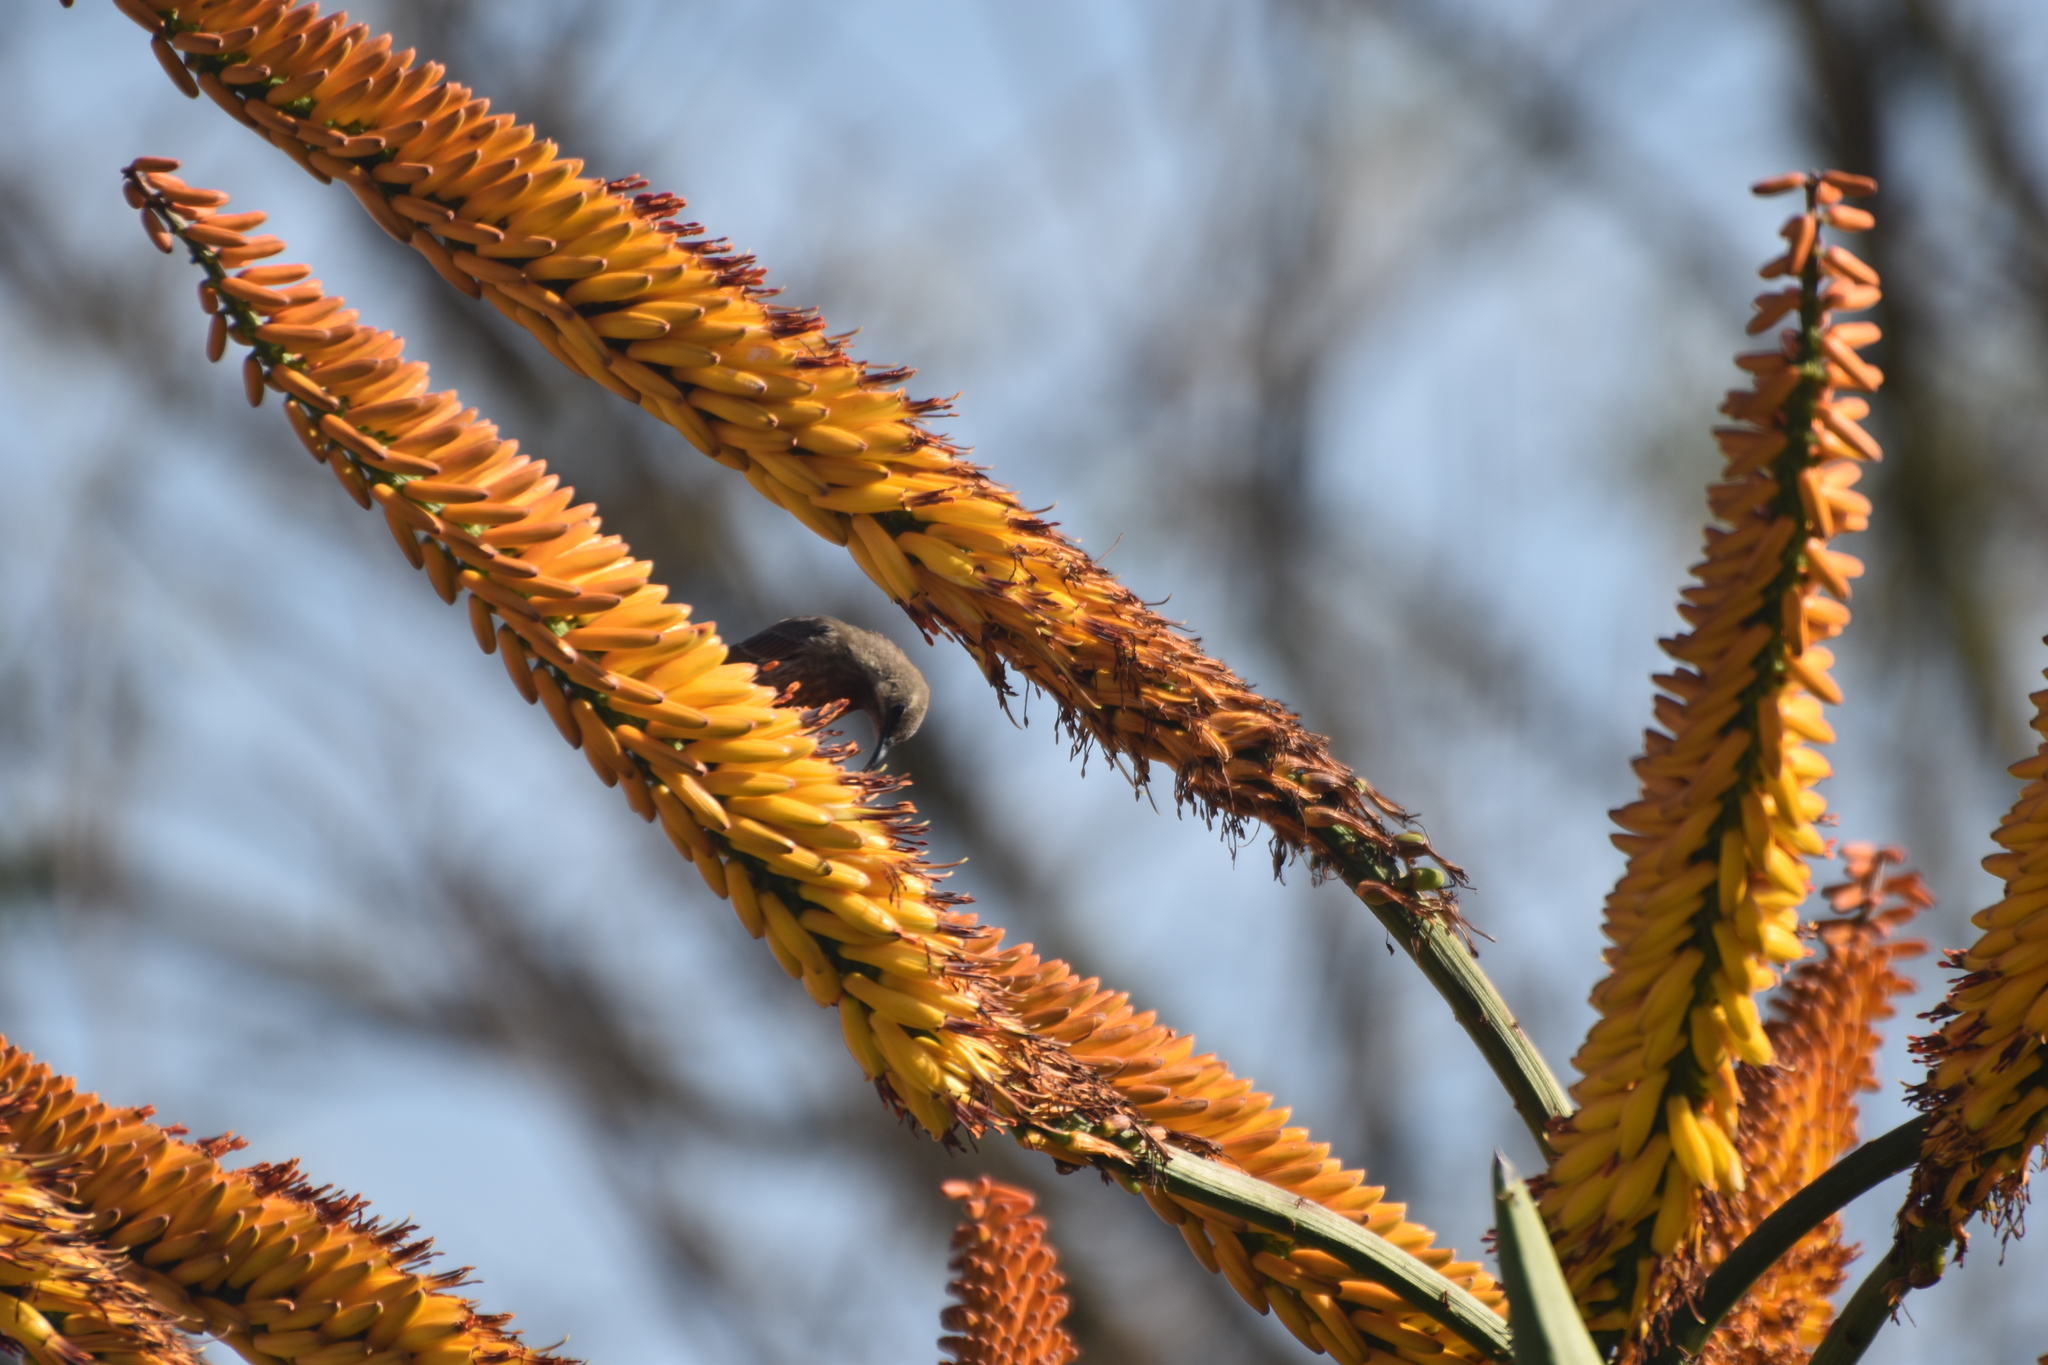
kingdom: Animalia
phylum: Chordata
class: Aves
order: Passeriformes
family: Nectariniidae
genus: Chalcomitra
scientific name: Chalcomitra senegalensis
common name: Scarlet-chested sunbird
